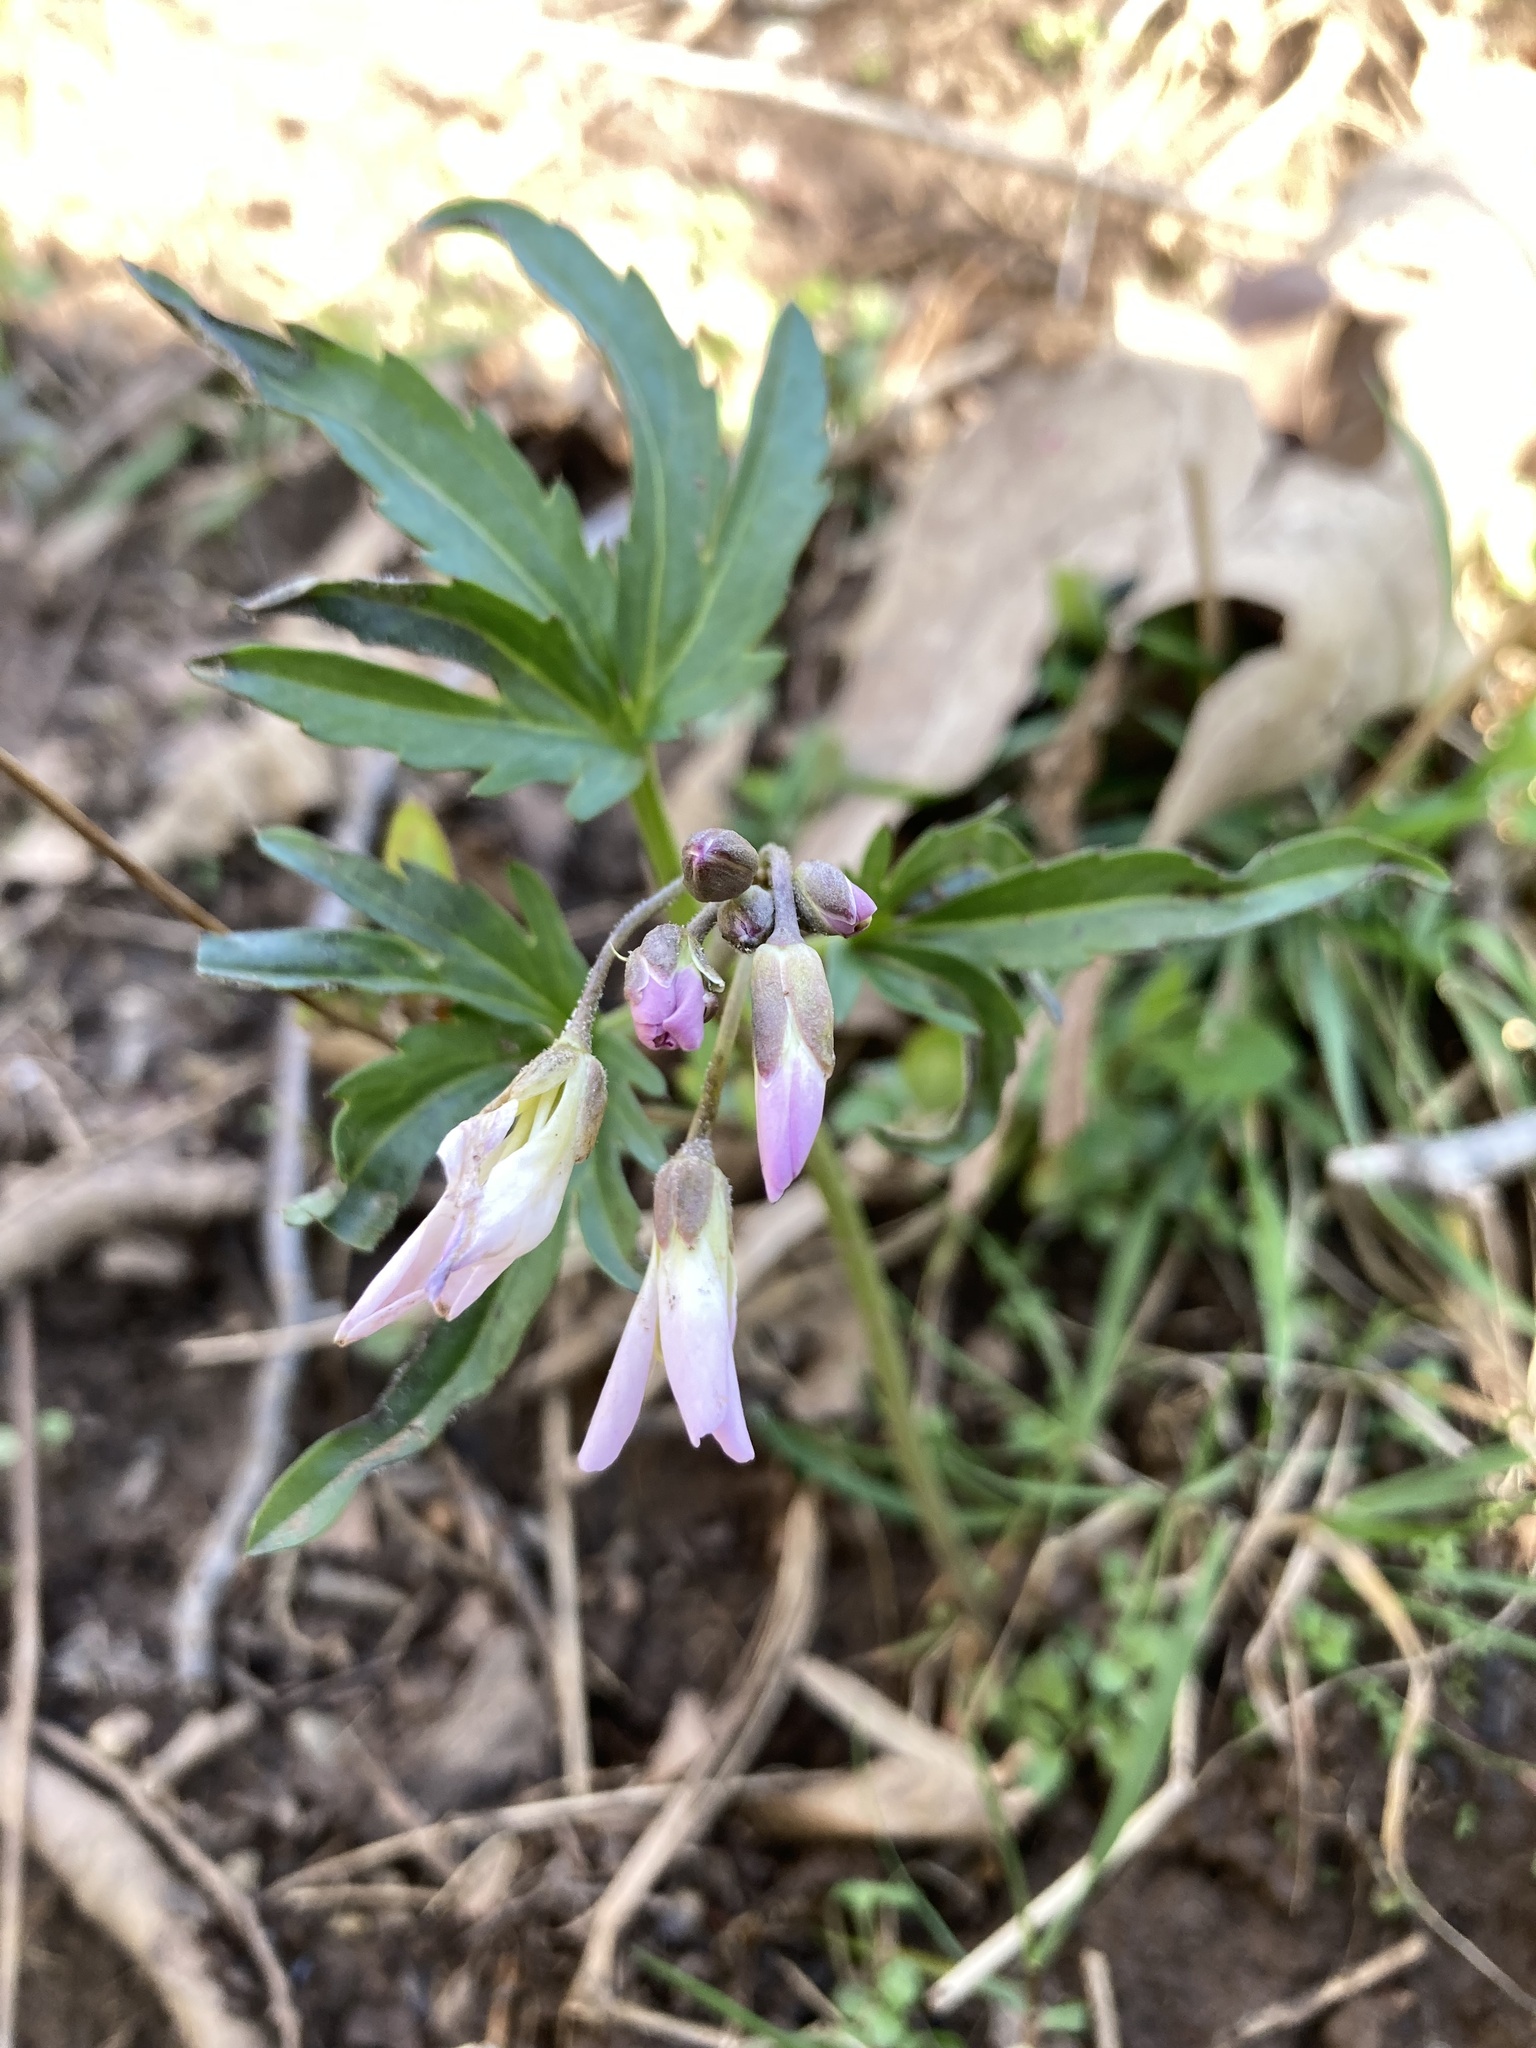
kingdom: Plantae
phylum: Tracheophyta
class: Magnoliopsida
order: Brassicales
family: Brassicaceae
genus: Cardamine
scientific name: Cardamine concatenata
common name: Cut-leaf toothcup
